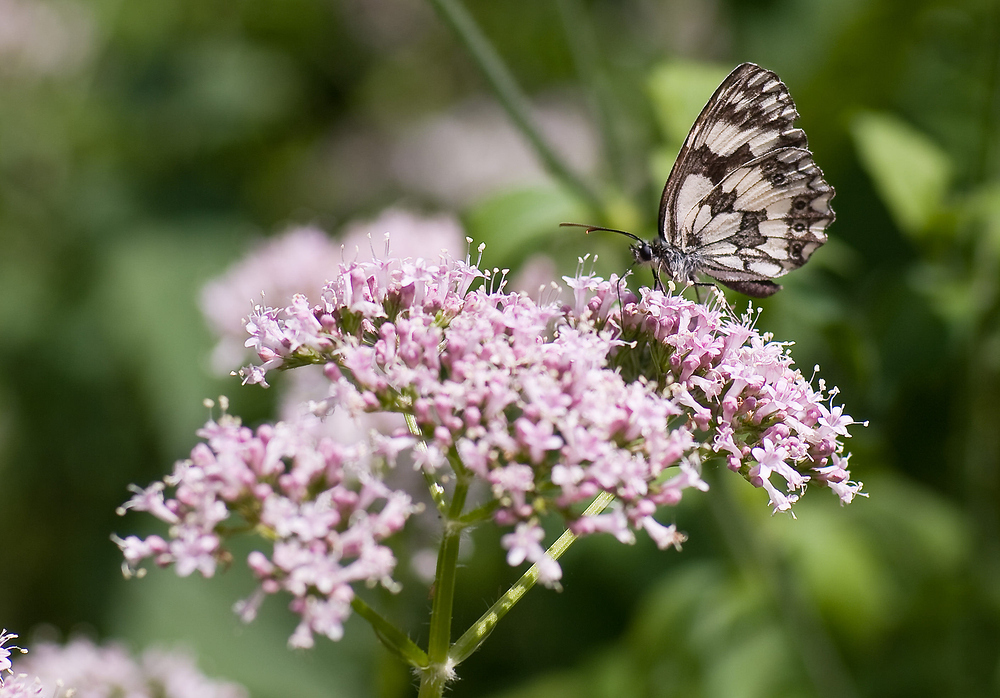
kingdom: Animalia
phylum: Arthropoda
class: Insecta
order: Lepidoptera
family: Nymphalidae
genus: Melanargia
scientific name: Melanargia galathea
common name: Marbled white
